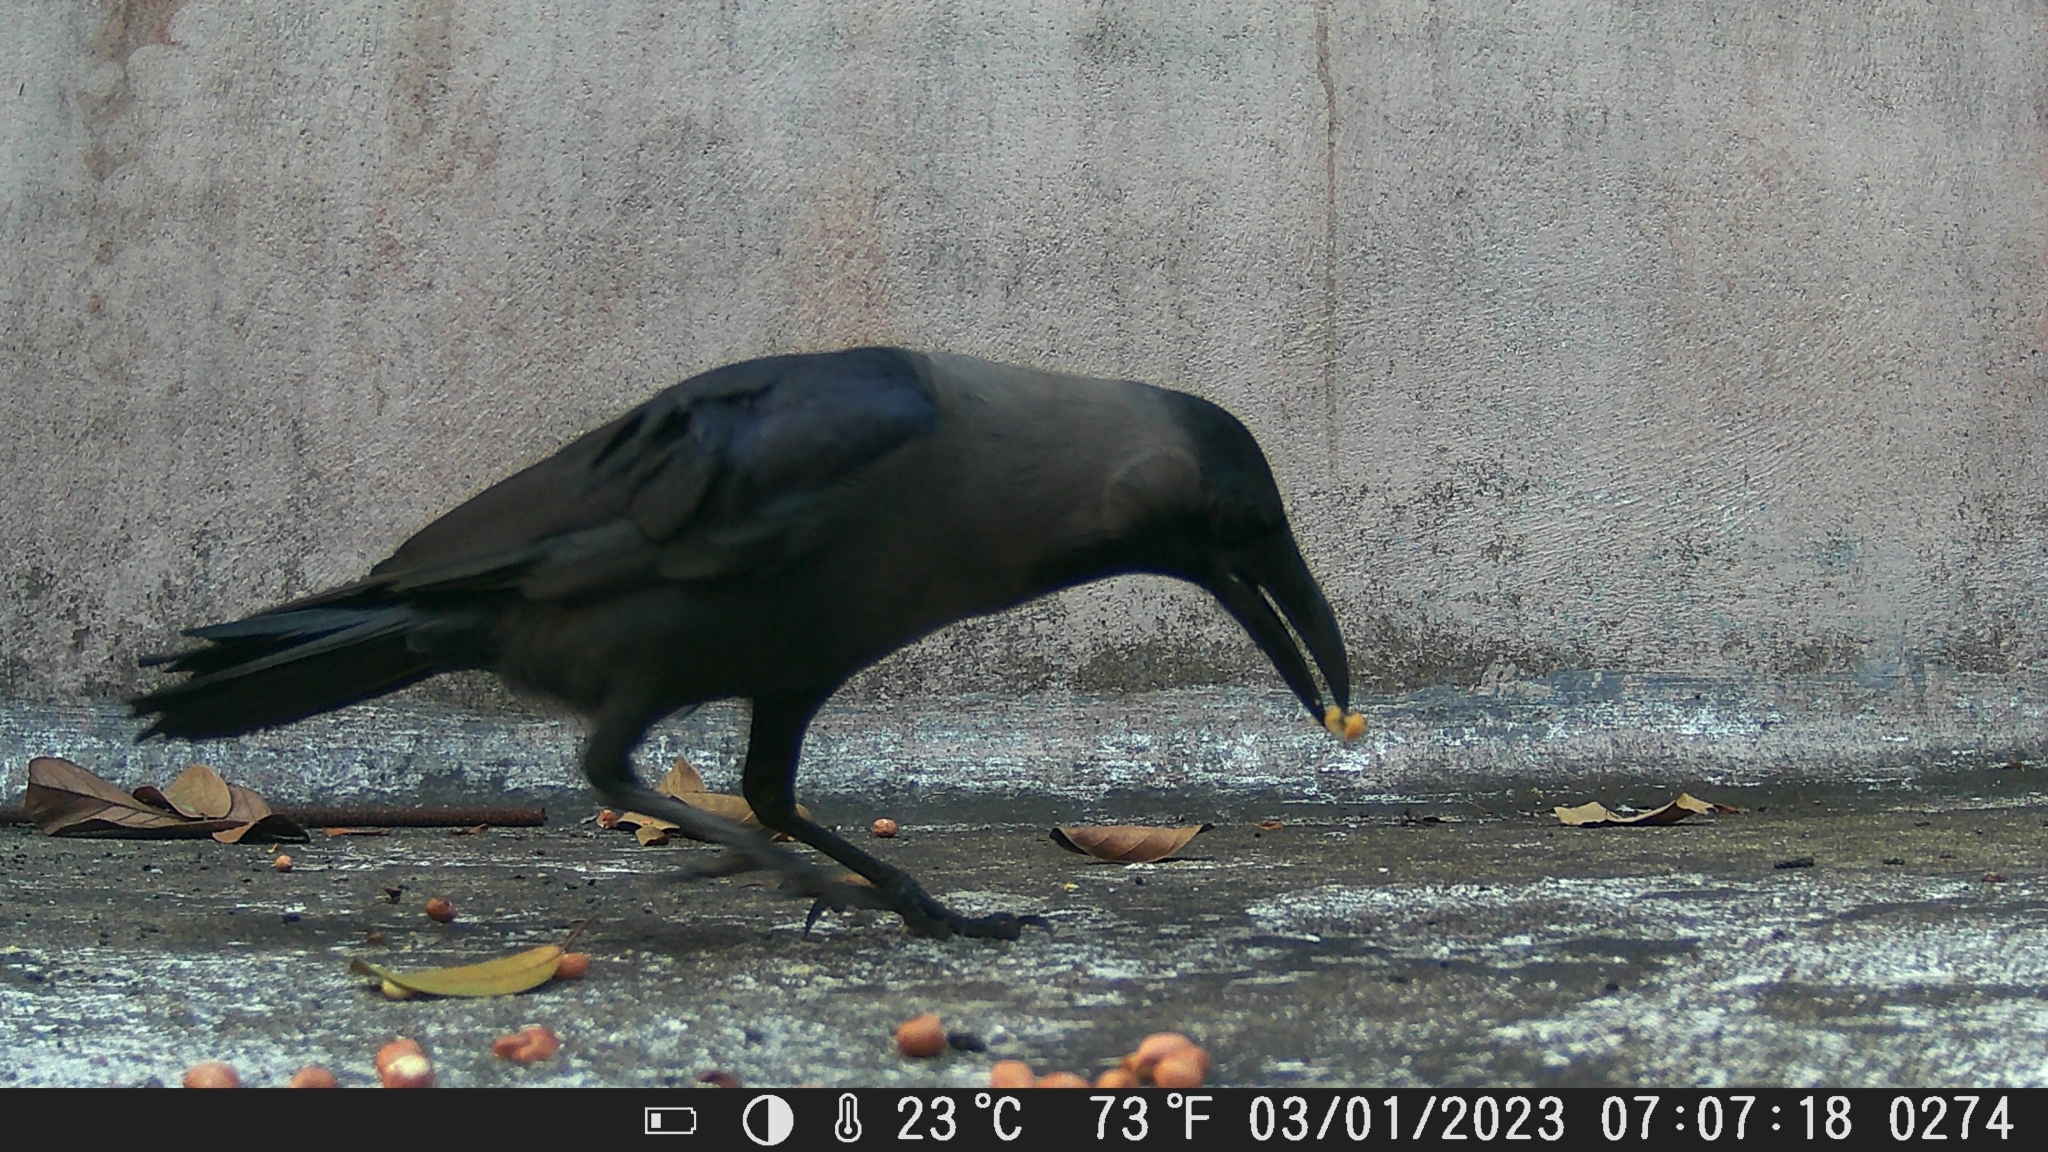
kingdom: Animalia
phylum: Chordata
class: Aves
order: Passeriformes
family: Corvidae
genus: Corvus
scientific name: Corvus splendens
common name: House crow
